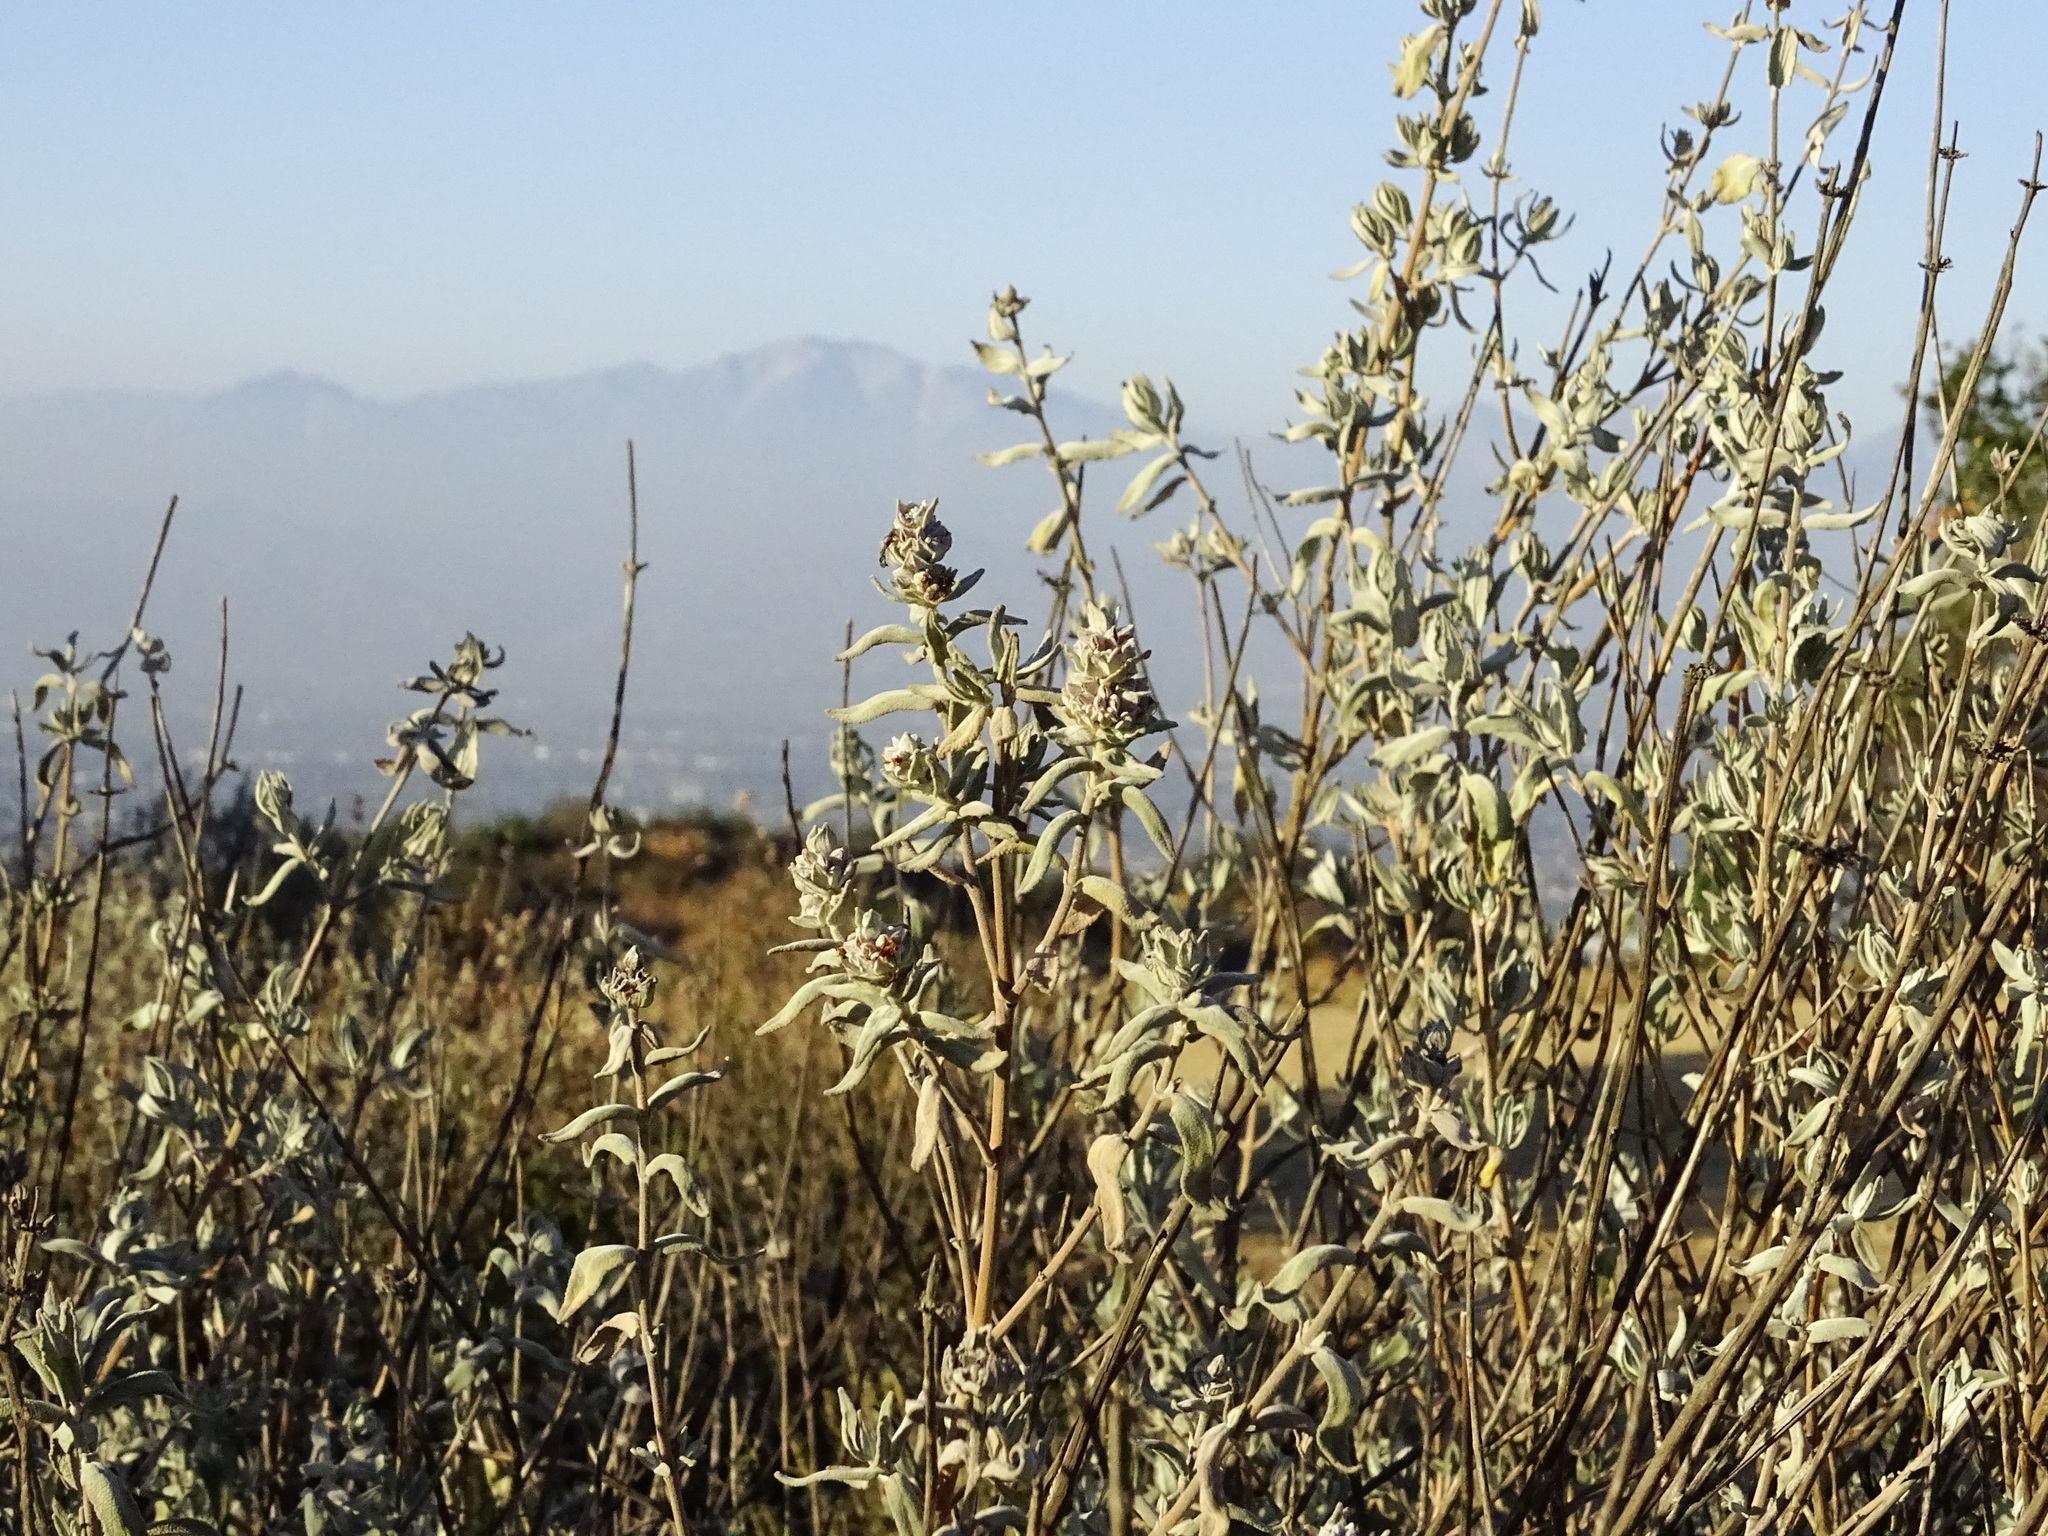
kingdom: Plantae
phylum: Tracheophyta
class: Magnoliopsida
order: Lamiales
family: Lamiaceae
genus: Salvia
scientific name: Salvia leucophylla
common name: Purple sage
